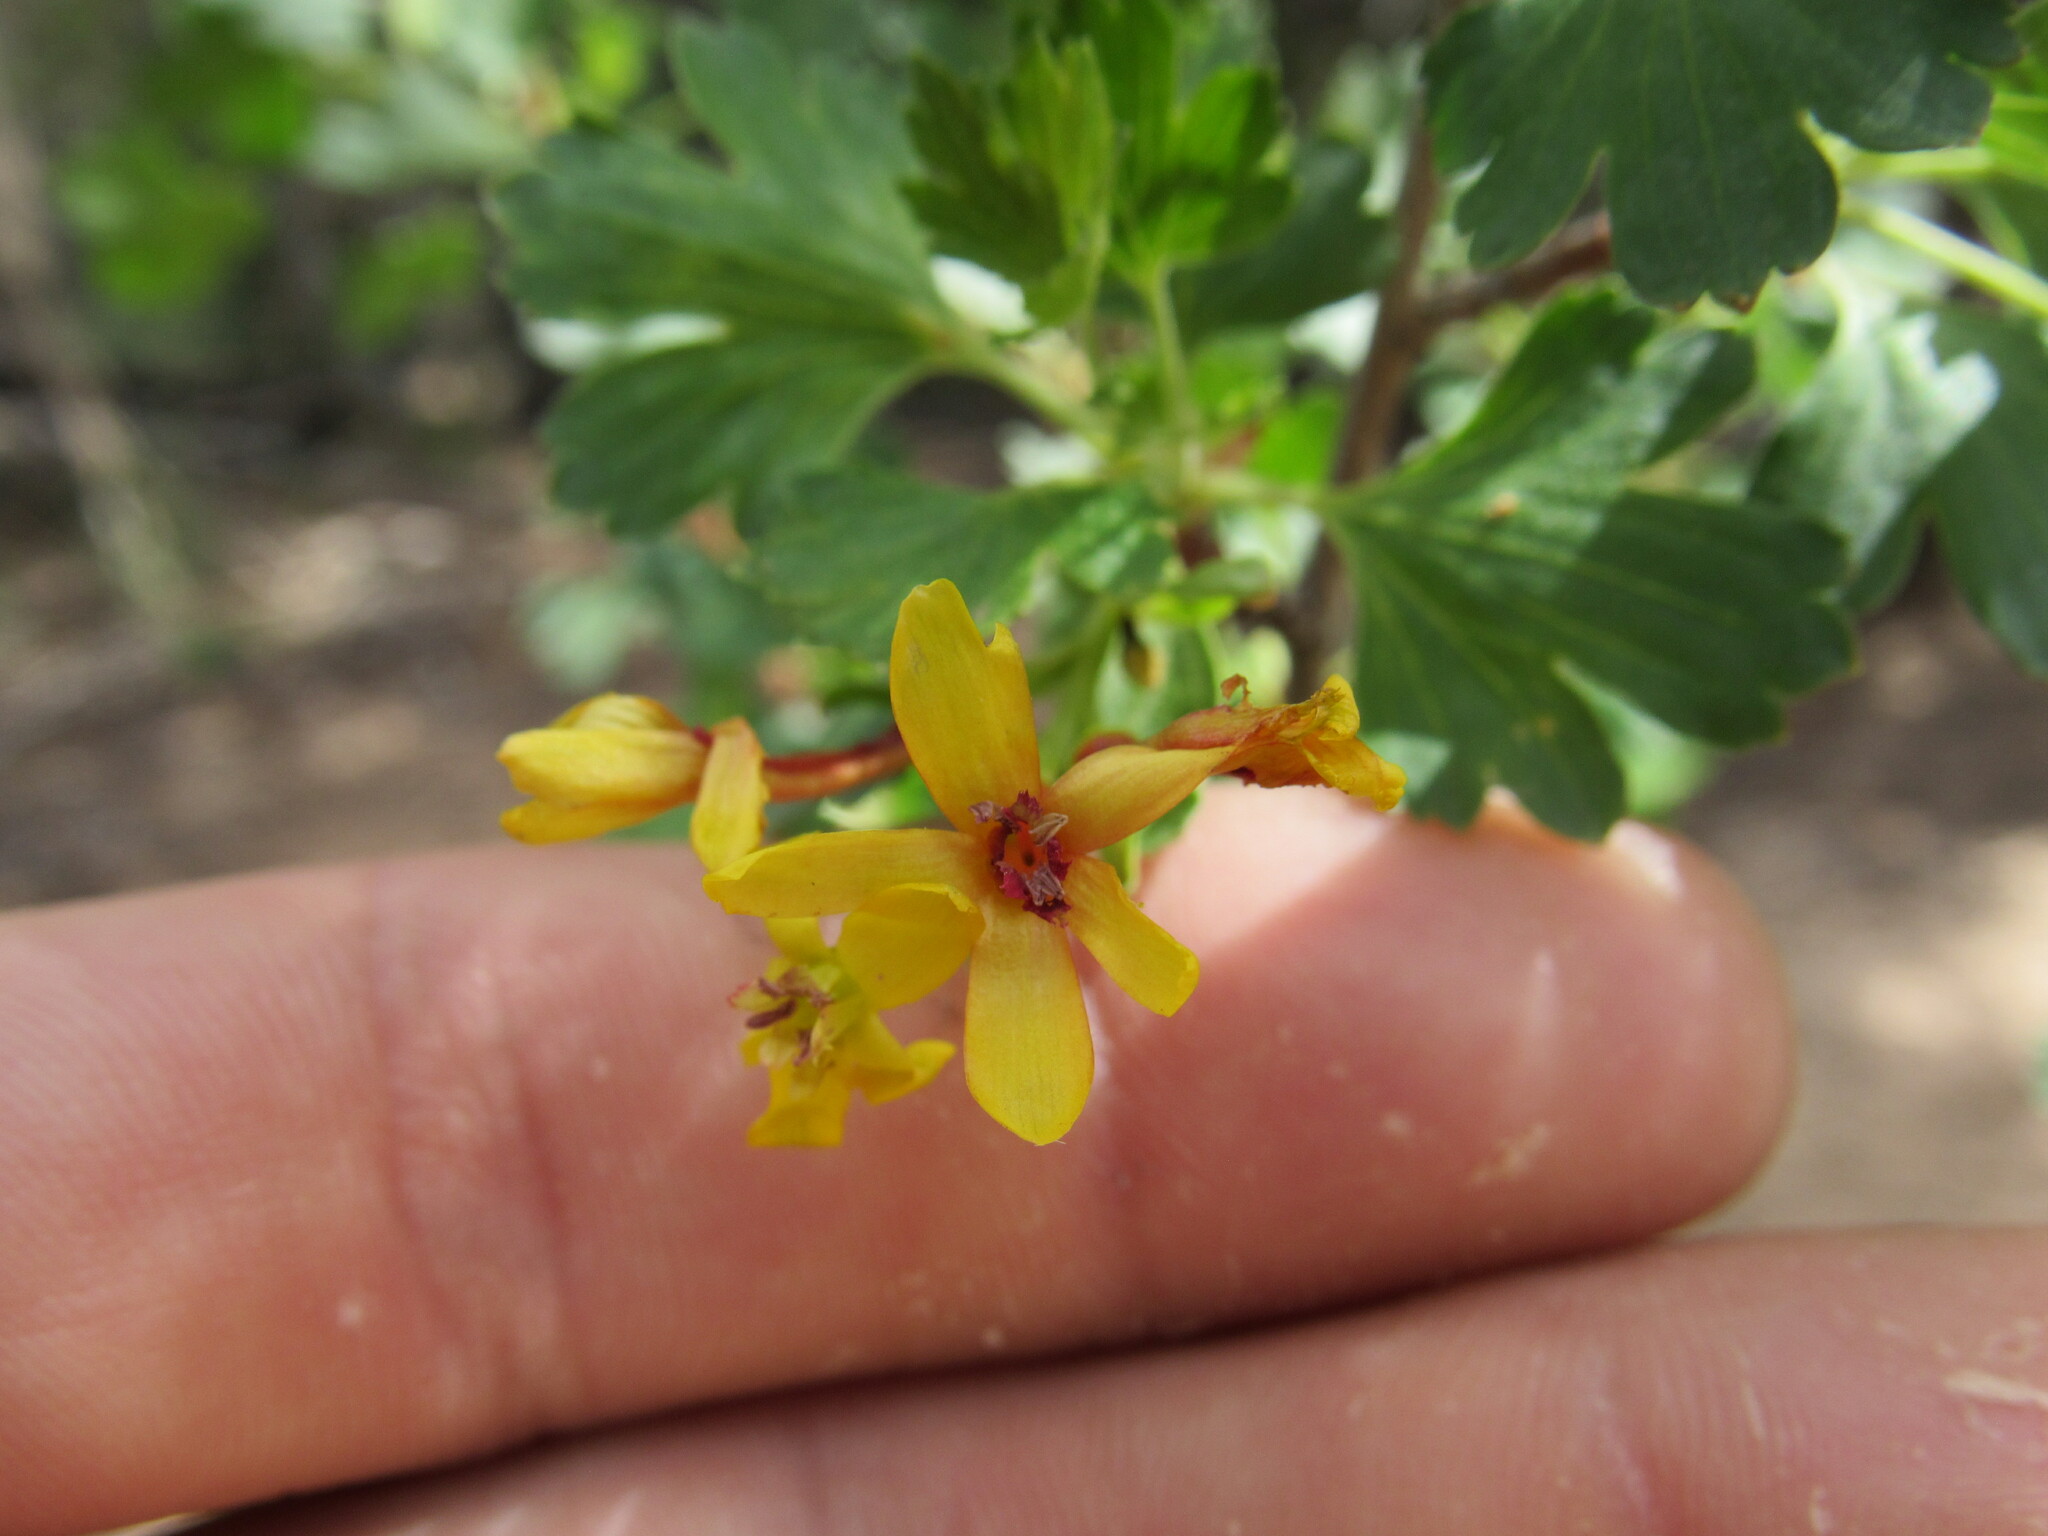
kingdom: Plantae
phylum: Tracheophyta
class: Magnoliopsida
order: Saxifragales
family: Grossulariaceae
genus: Ribes
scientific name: Ribes aureum
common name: Golden currant
